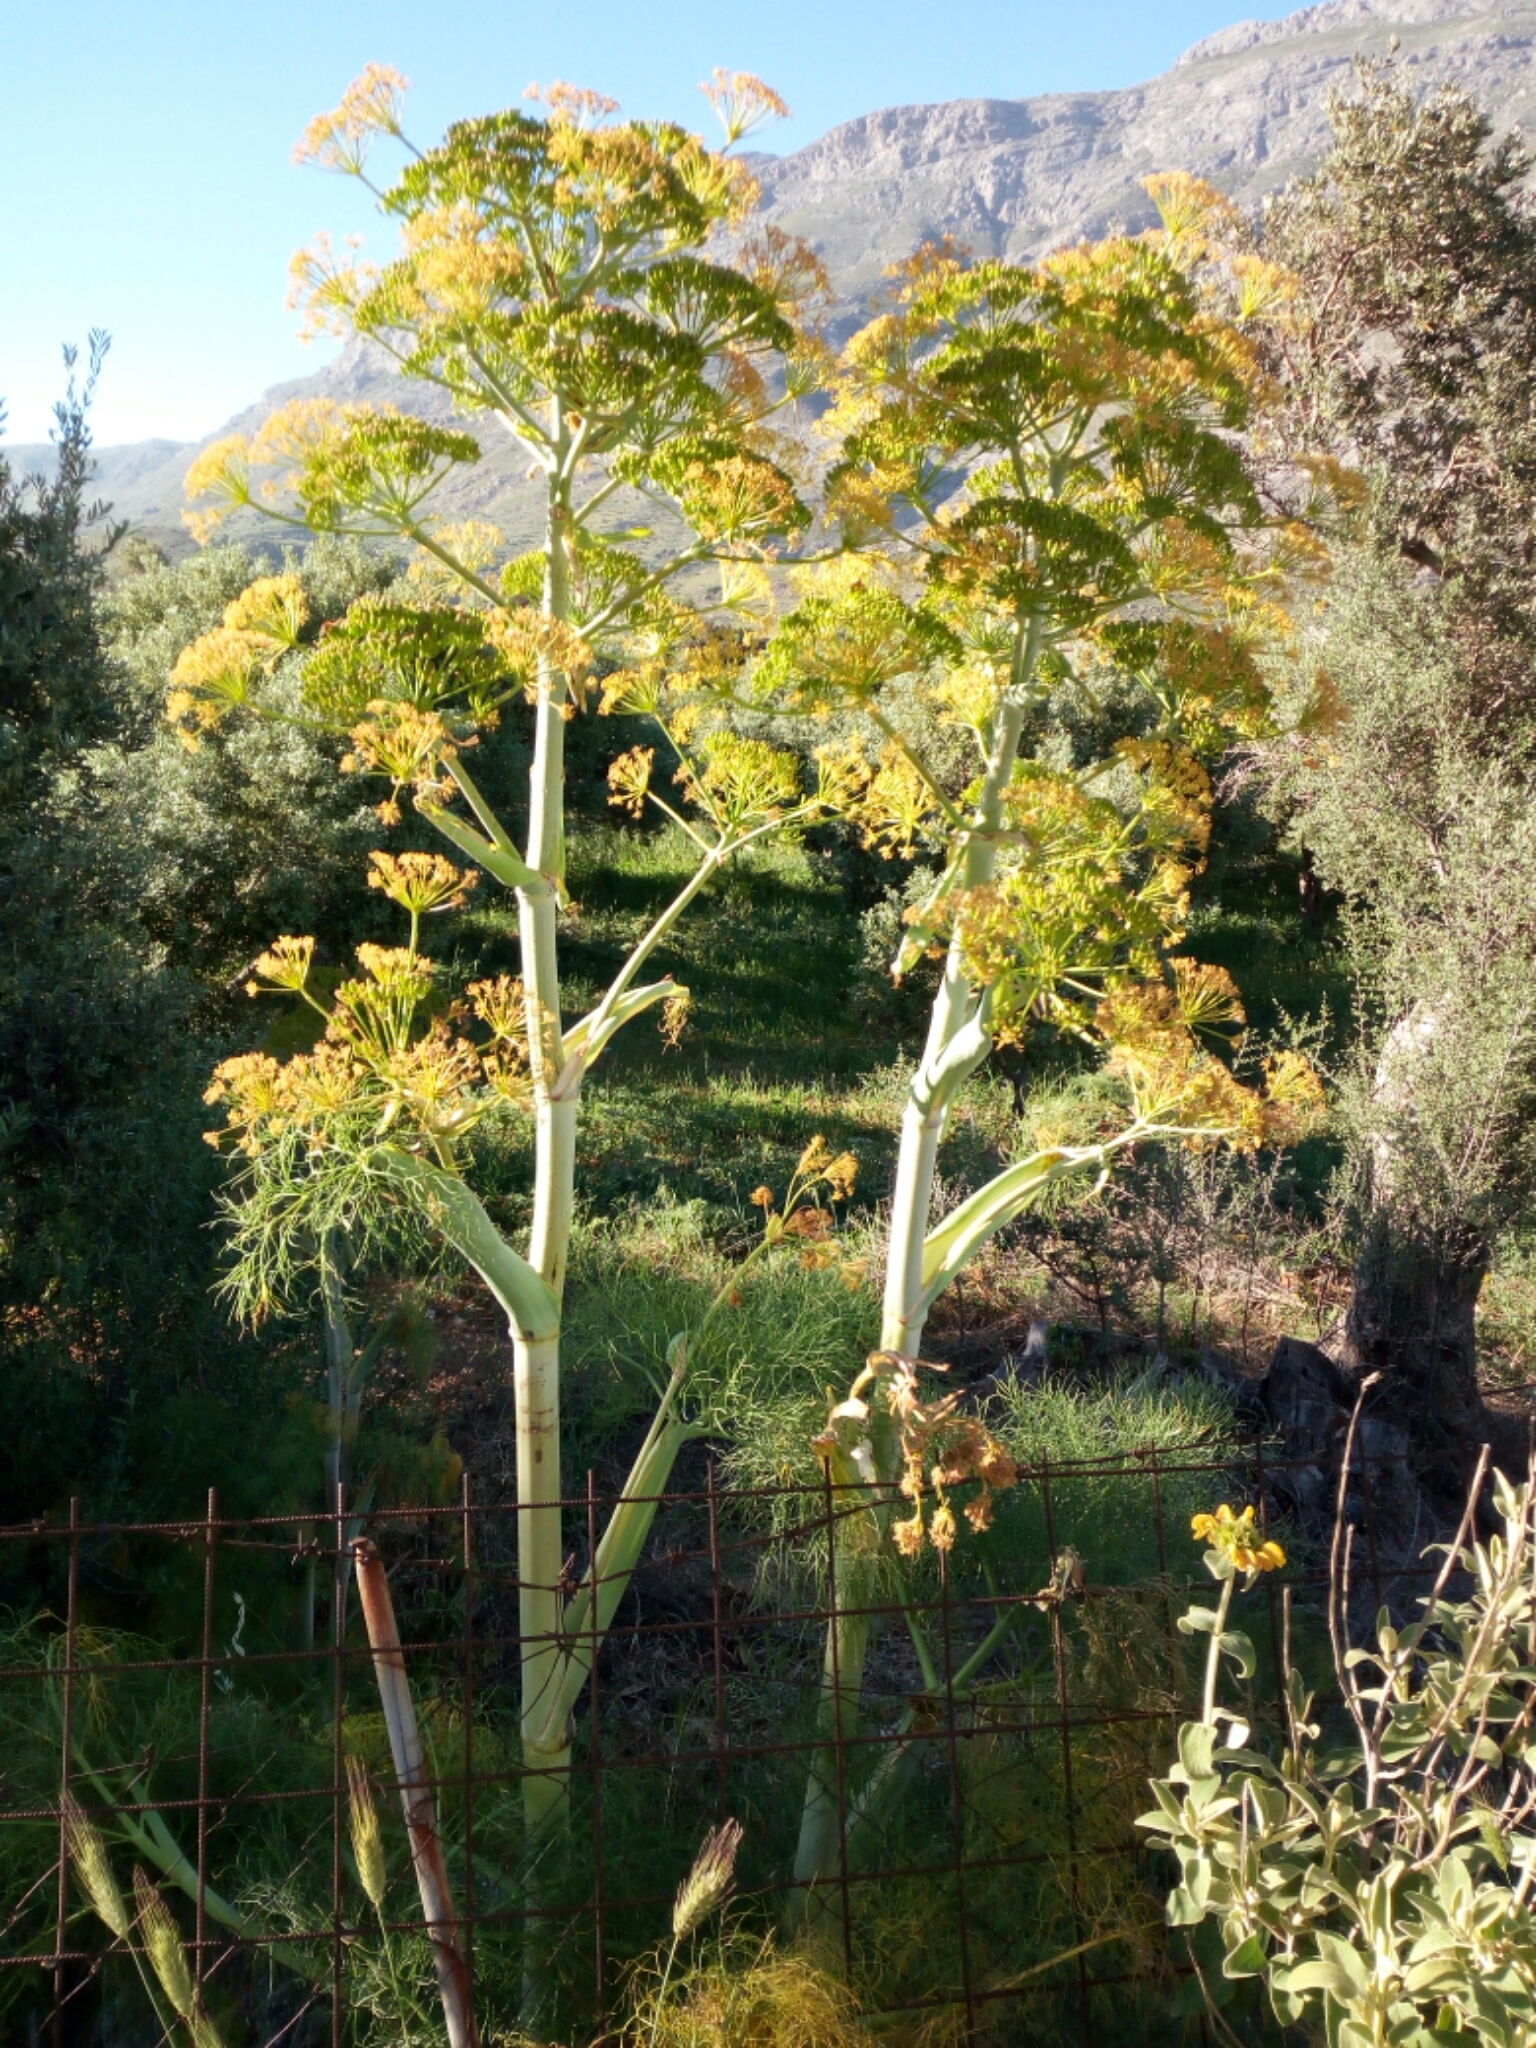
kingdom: Plantae
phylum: Tracheophyta
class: Magnoliopsida
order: Apiales
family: Apiaceae
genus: Ferula
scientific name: Ferula communis
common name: Giant fennel
